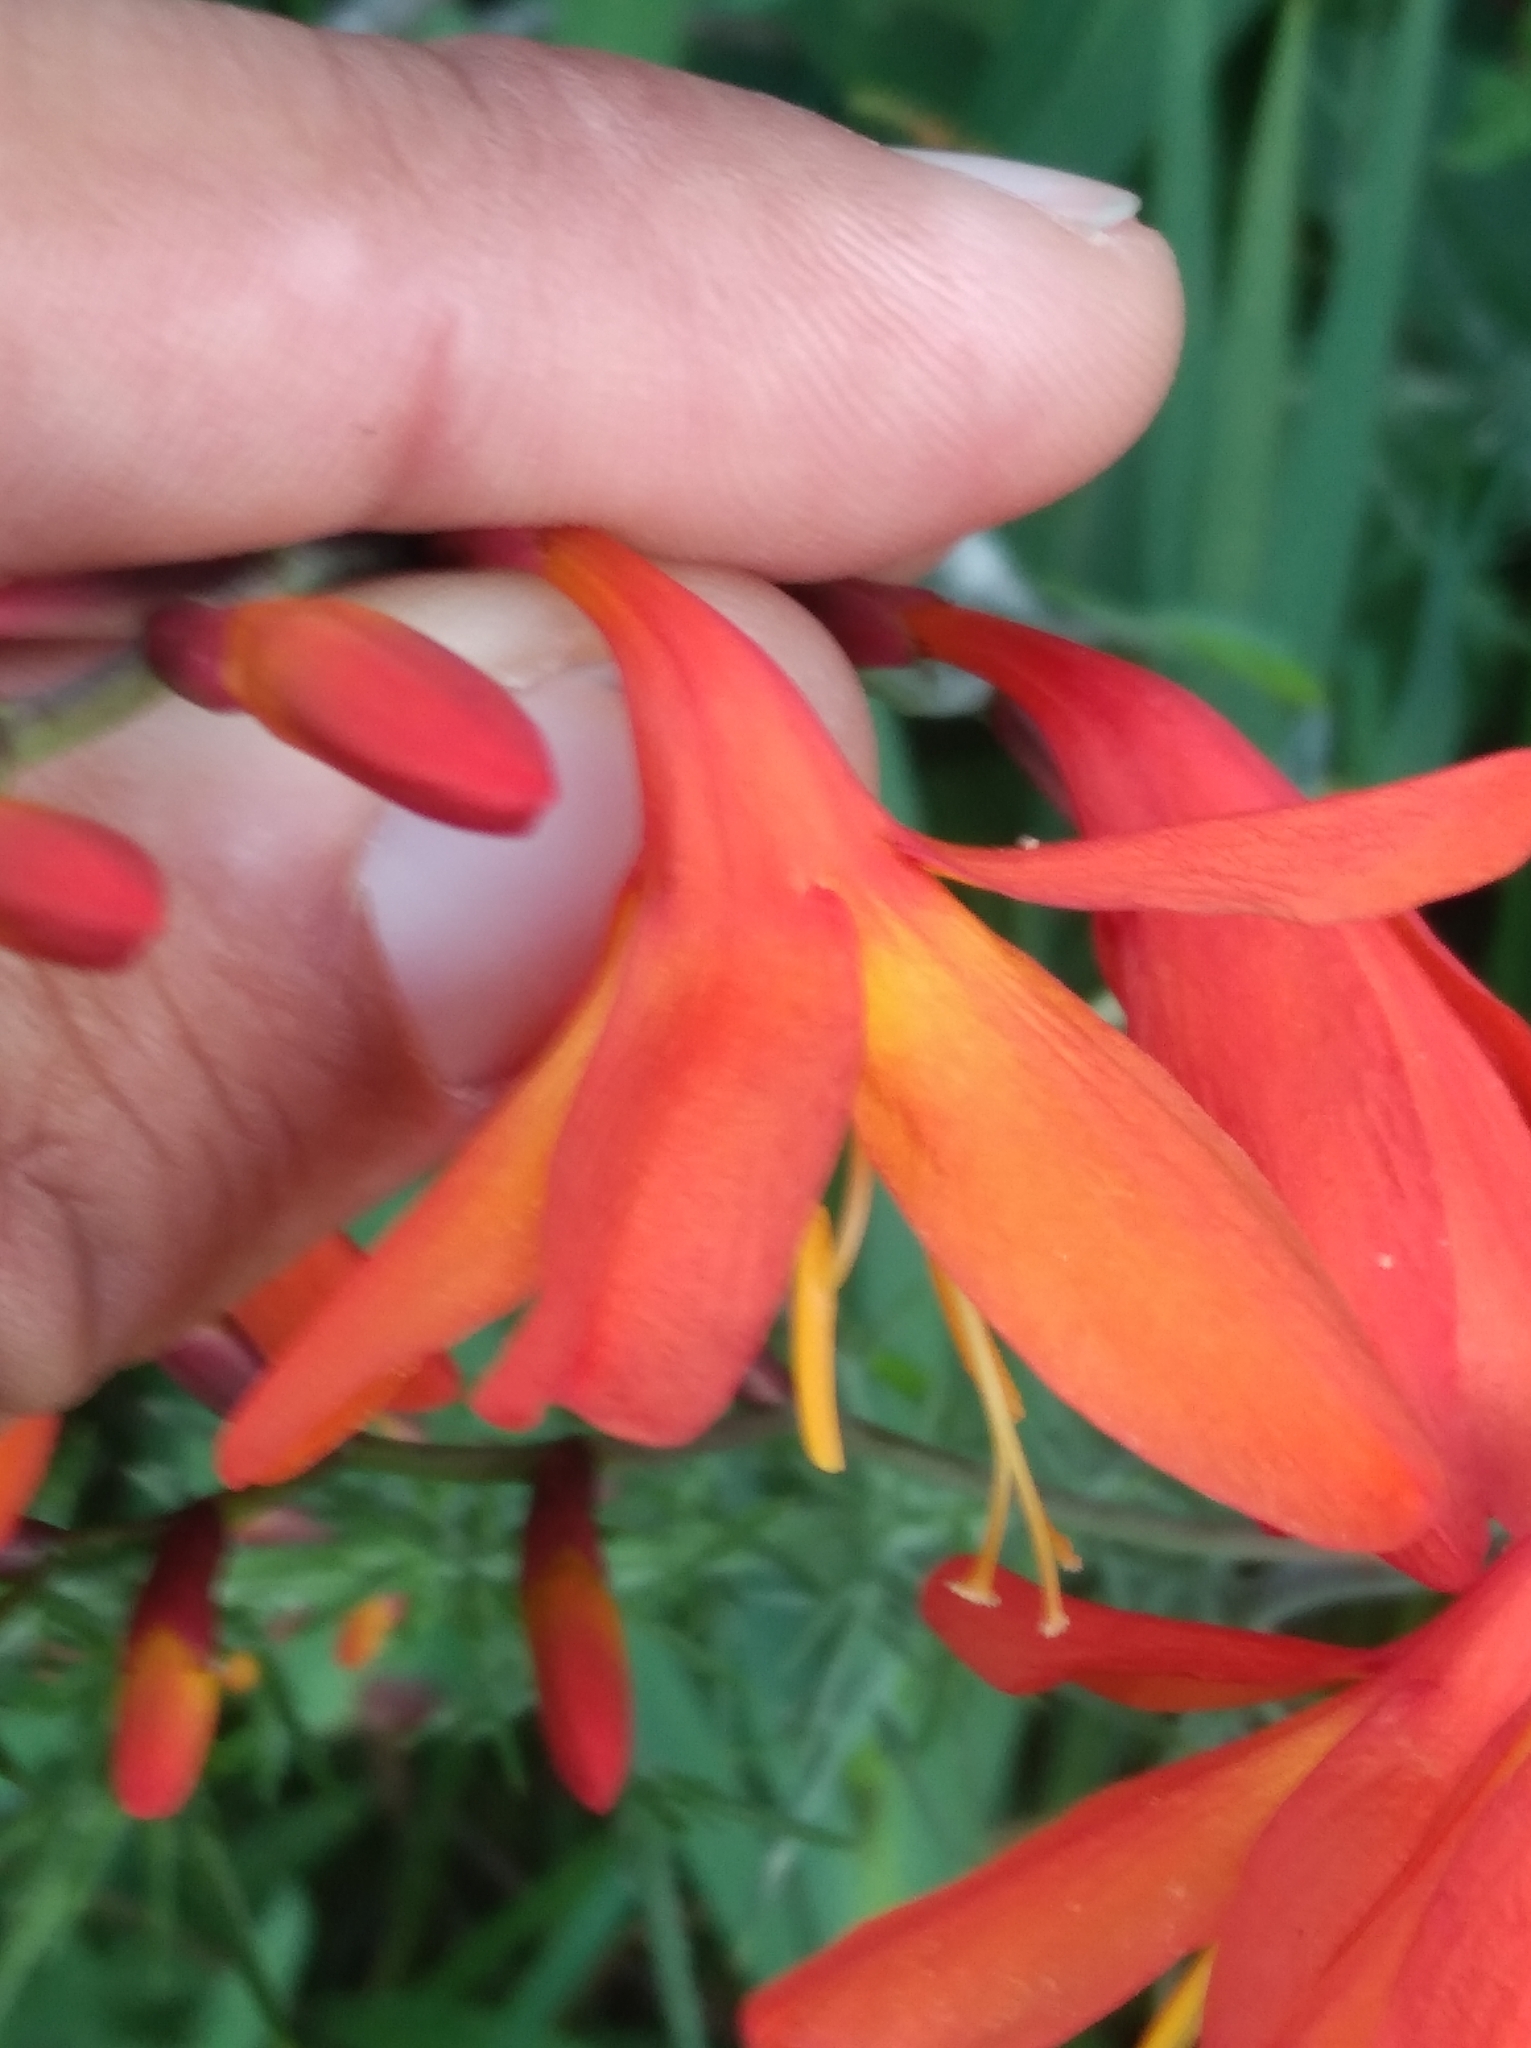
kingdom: Plantae
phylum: Tracheophyta
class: Liliopsida
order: Asparagales
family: Iridaceae
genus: Crocosmia
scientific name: Crocosmia crocosmiiflora
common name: Montbretia
